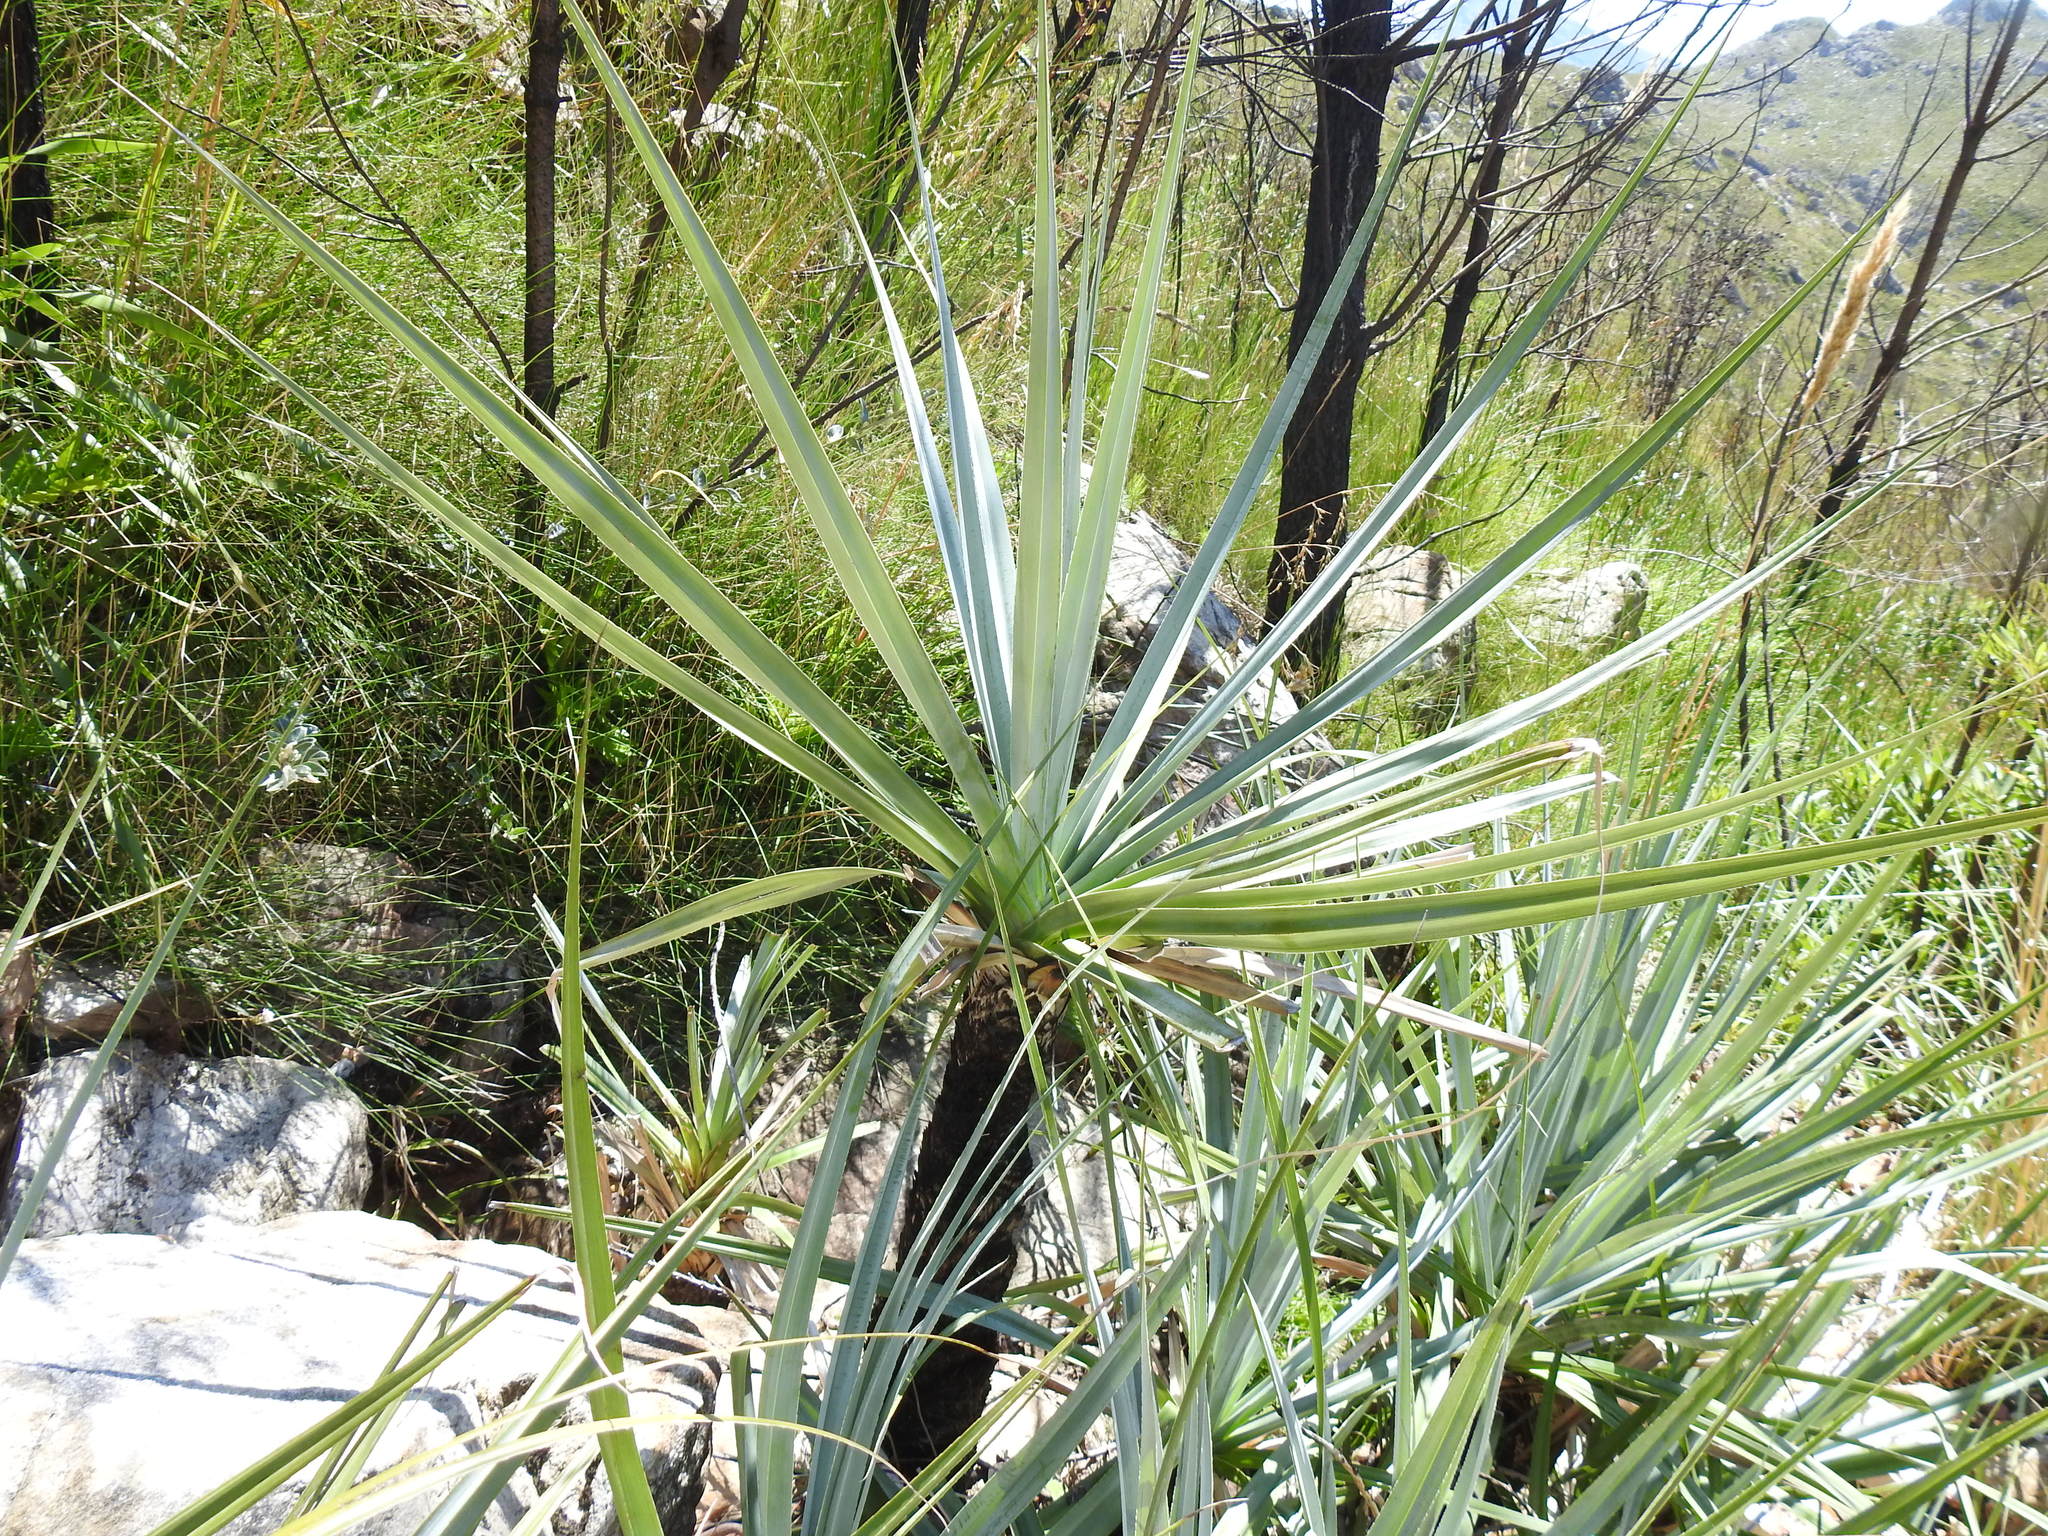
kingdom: Plantae
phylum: Tracheophyta
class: Liliopsida
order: Poales
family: Thurniaceae
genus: Prionium
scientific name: Prionium serratum
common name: Palmiet
